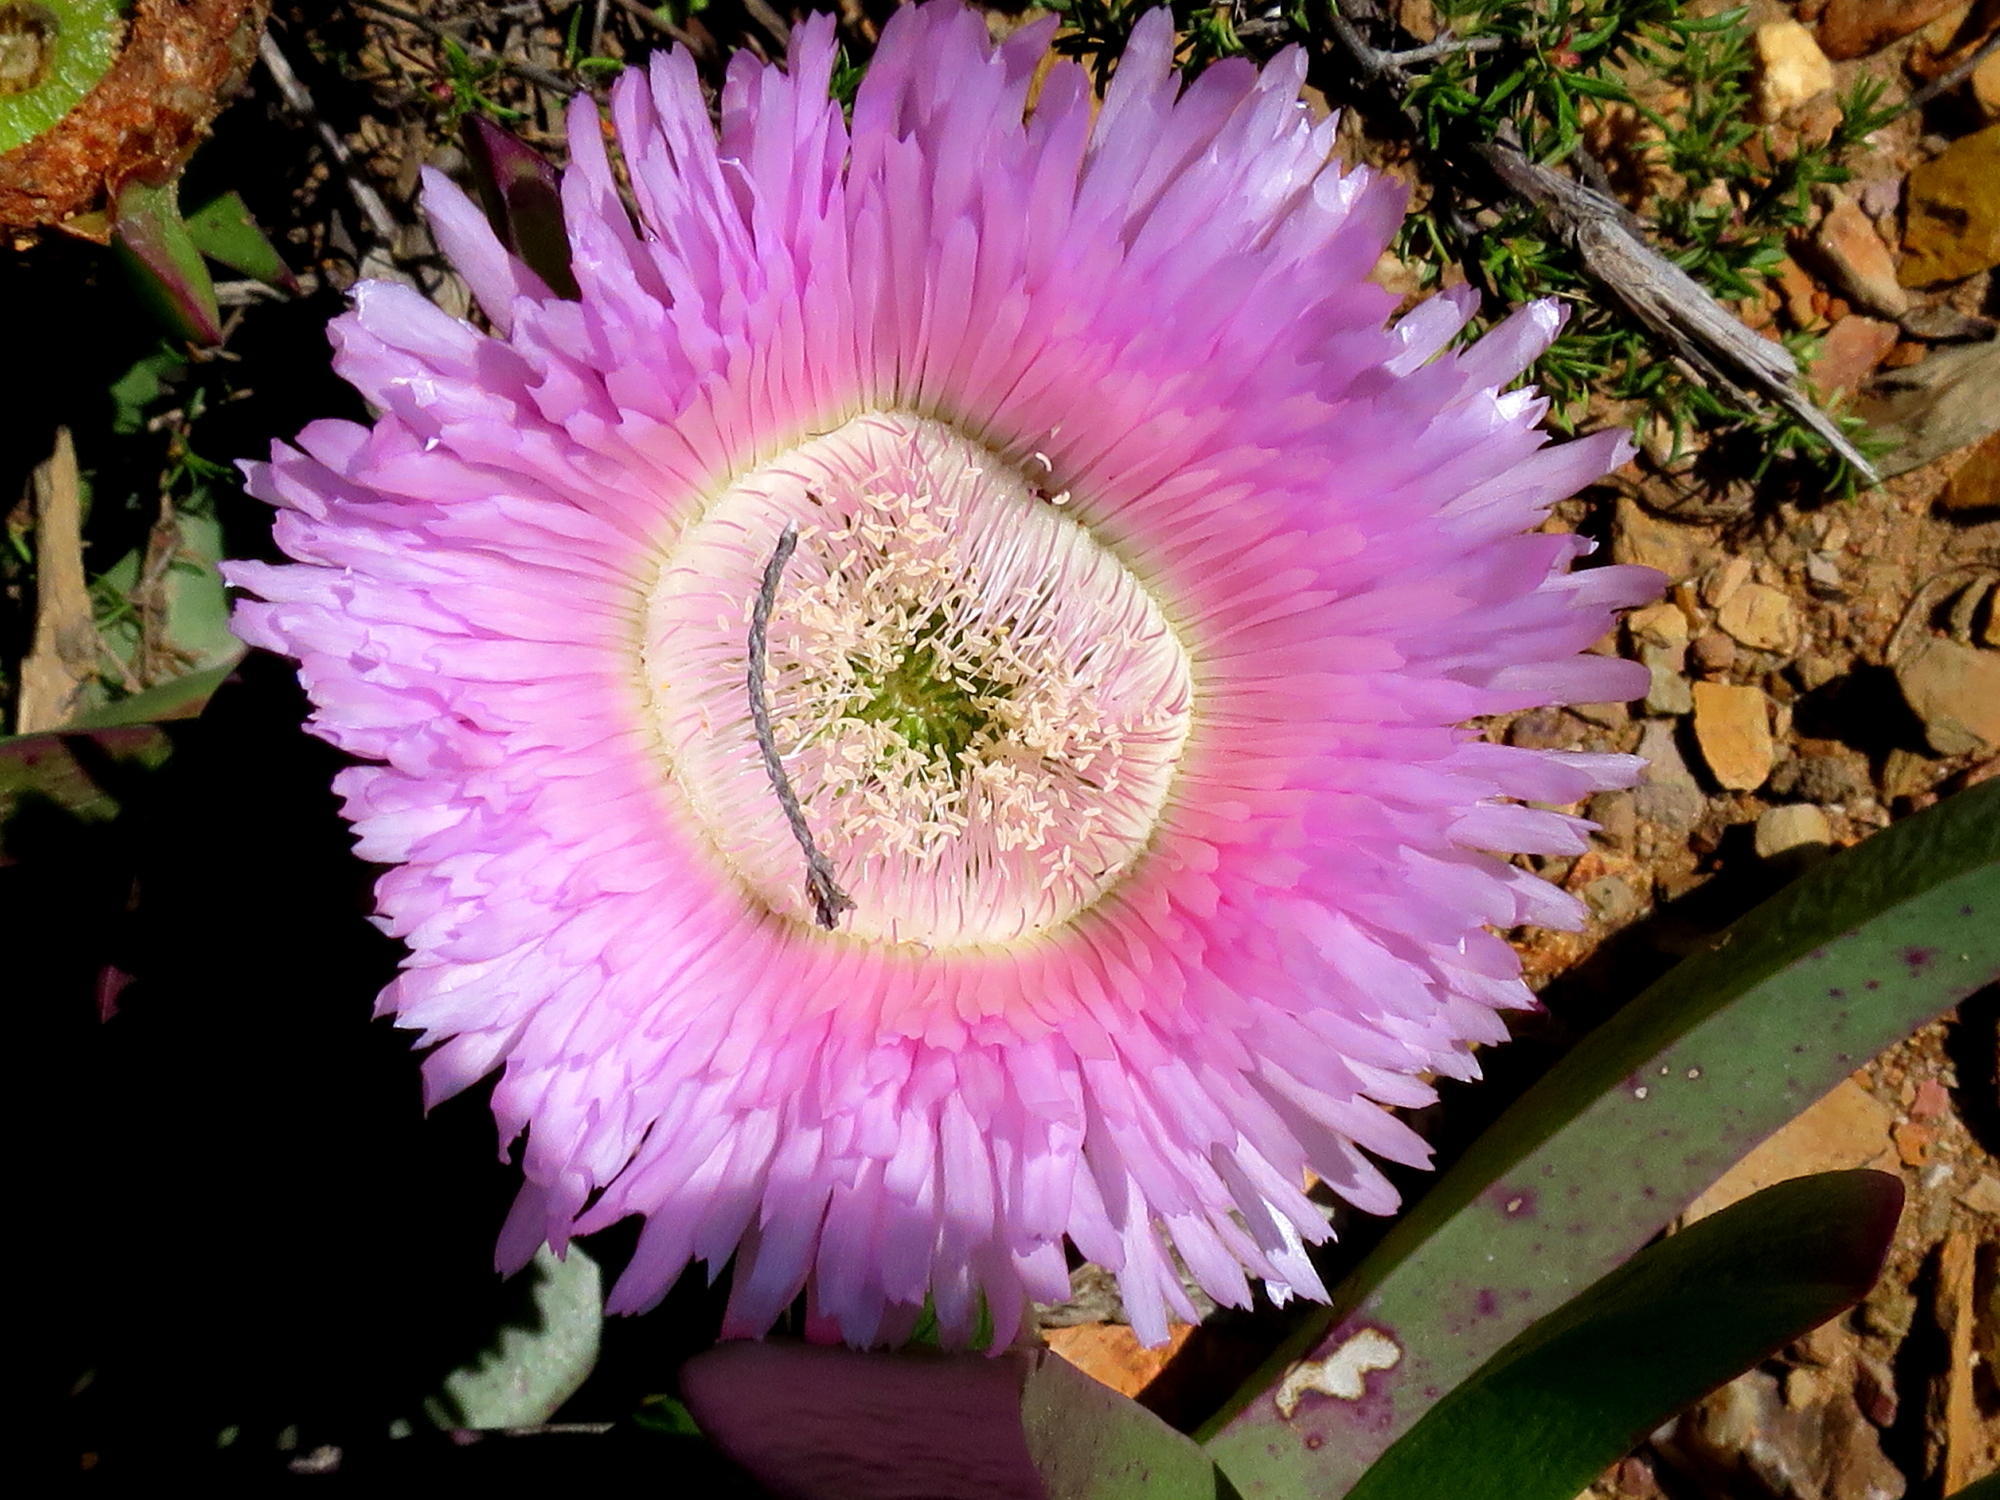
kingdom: Plantae
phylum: Tracheophyta
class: Magnoliopsida
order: Caryophyllales
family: Aizoaceae
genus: Carpobrotus
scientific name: Carpobrotus mellei
